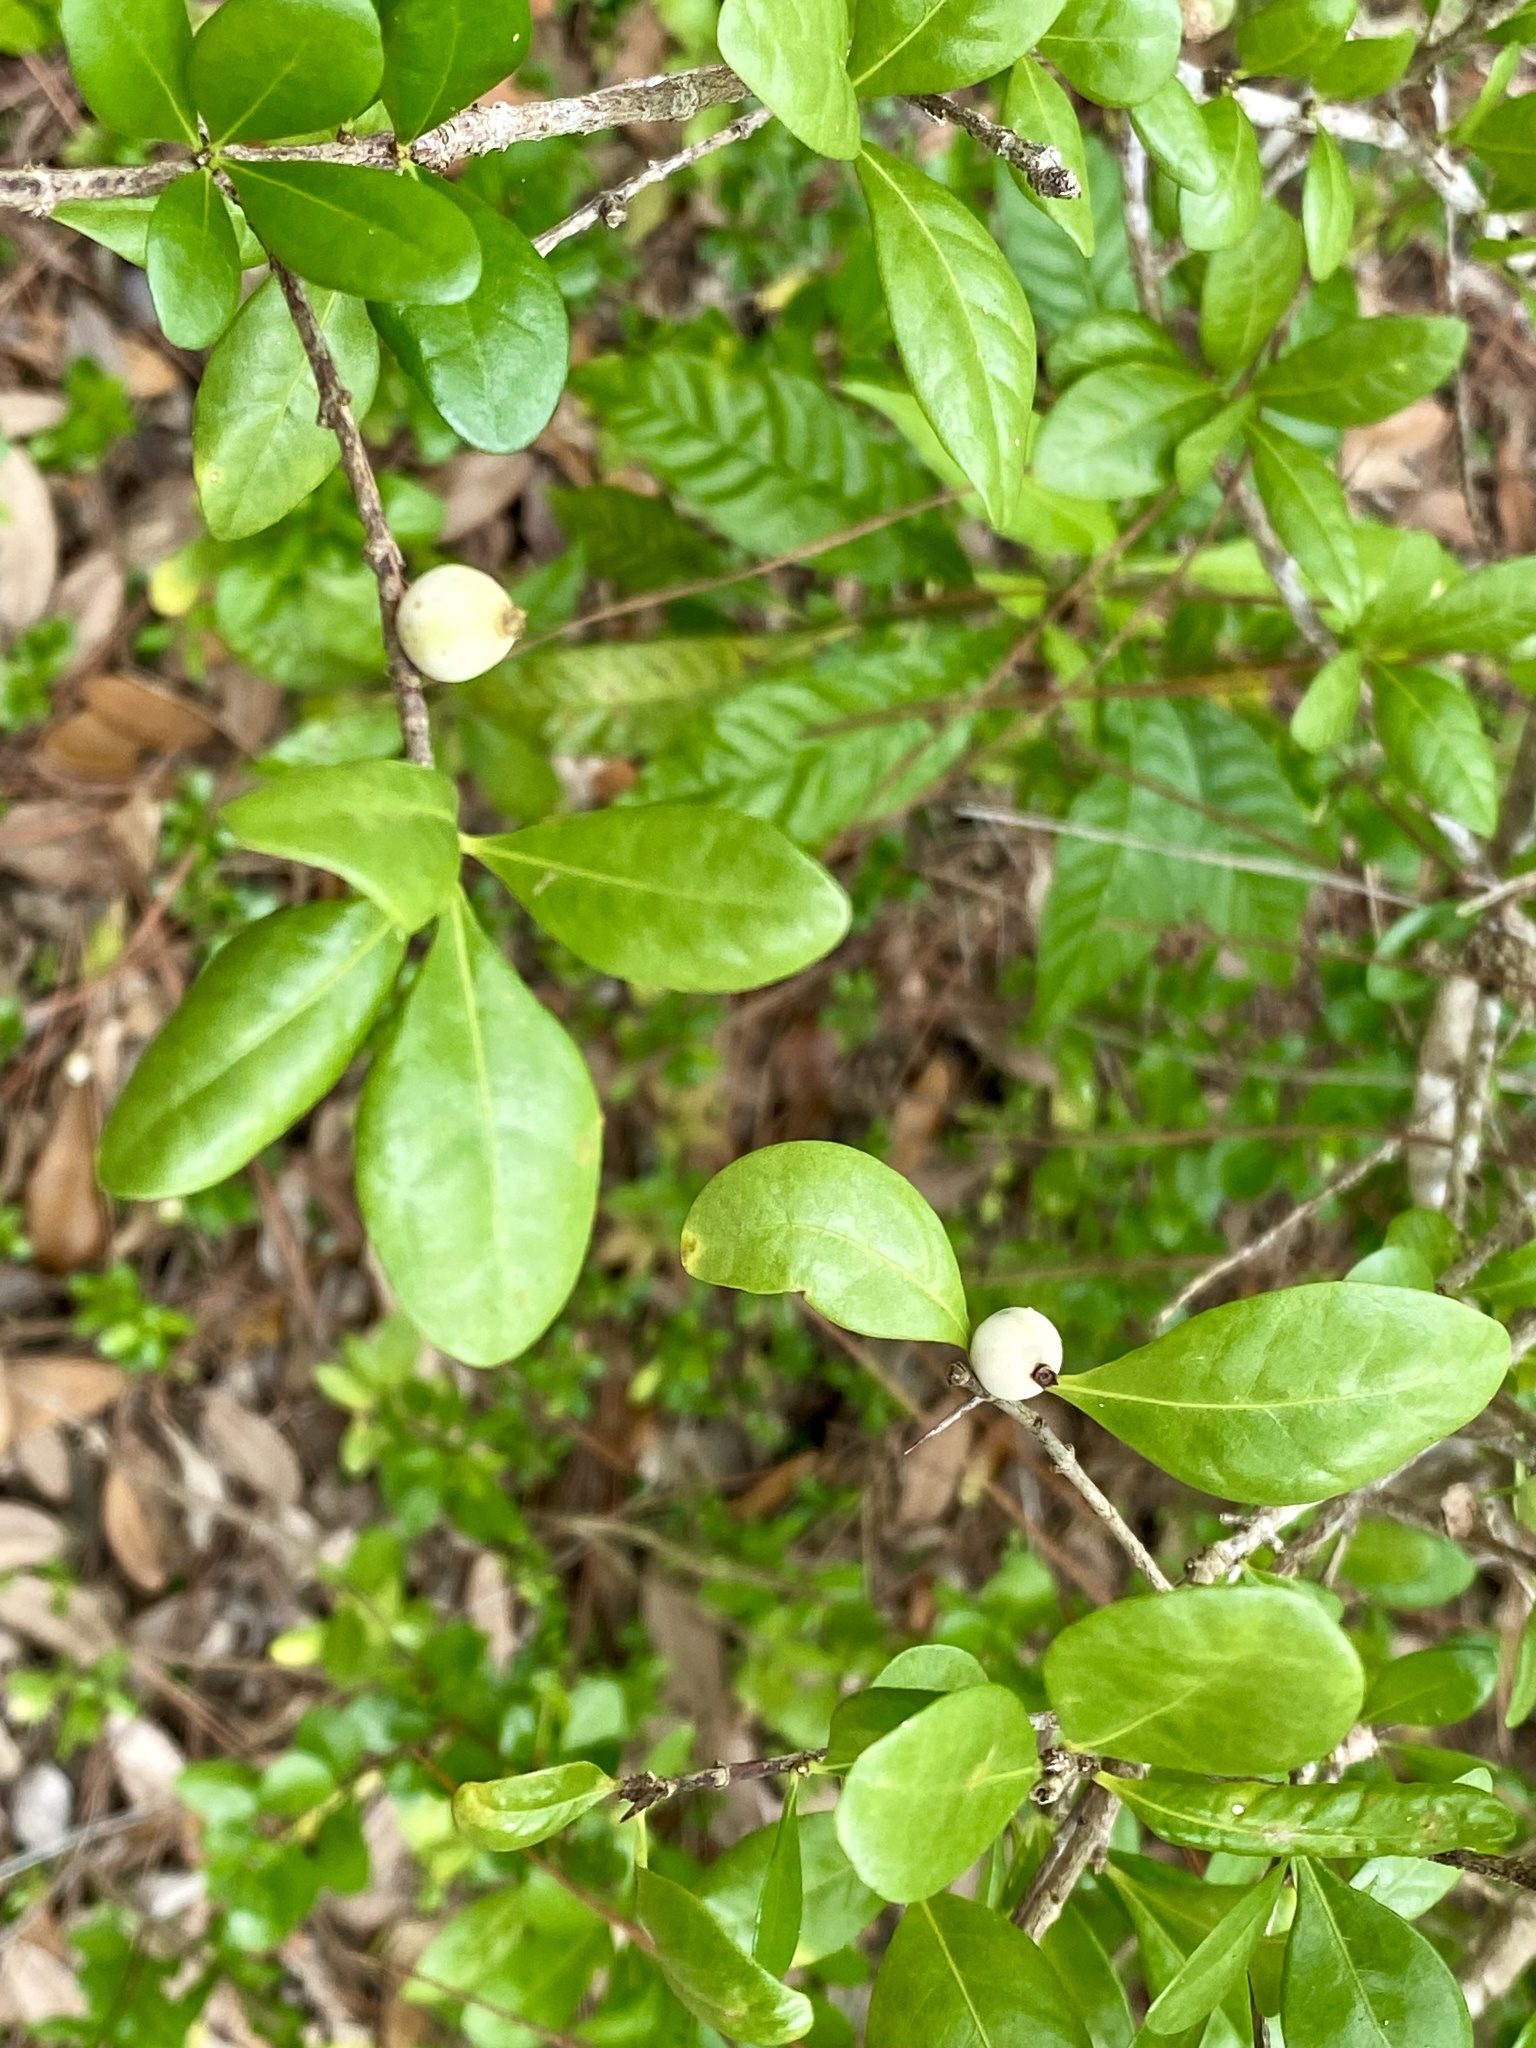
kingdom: Plantae
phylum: Tracheophyta
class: Magnoliopsida
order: Gentianales
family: Rubiaceae
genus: Randia
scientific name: Randia aculeata
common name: Inkberry
